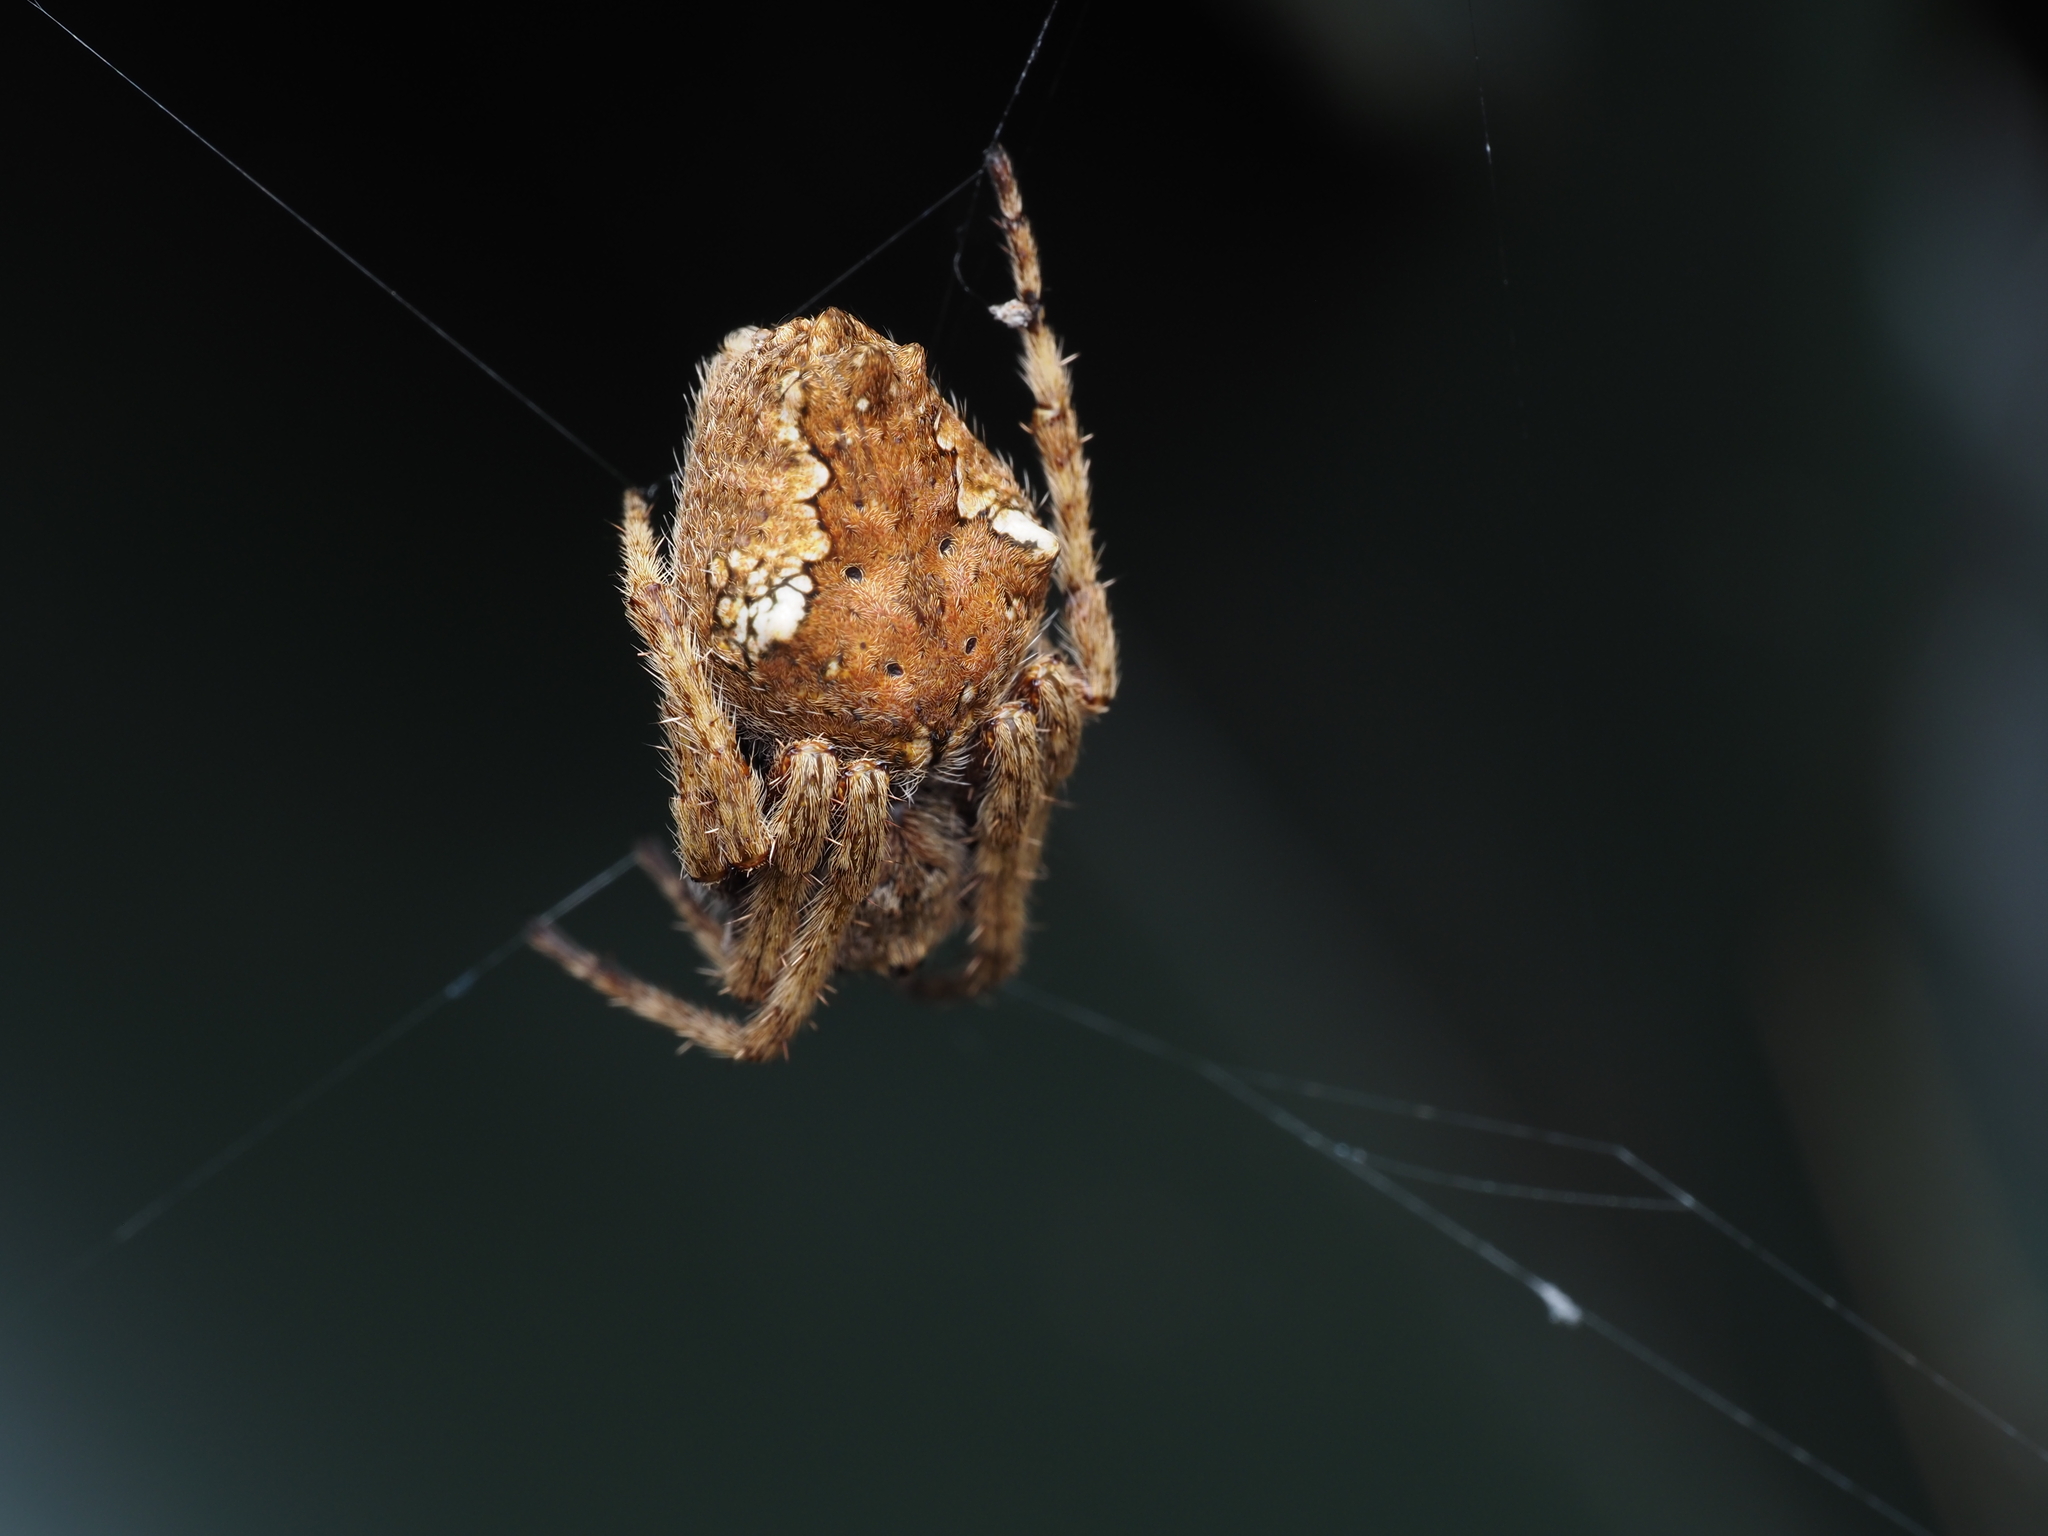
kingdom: Animalia
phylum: Arthropoda
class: Arachnida
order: Araneae
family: Araneidae
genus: Eriophora
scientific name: Eriophora pustulosa
